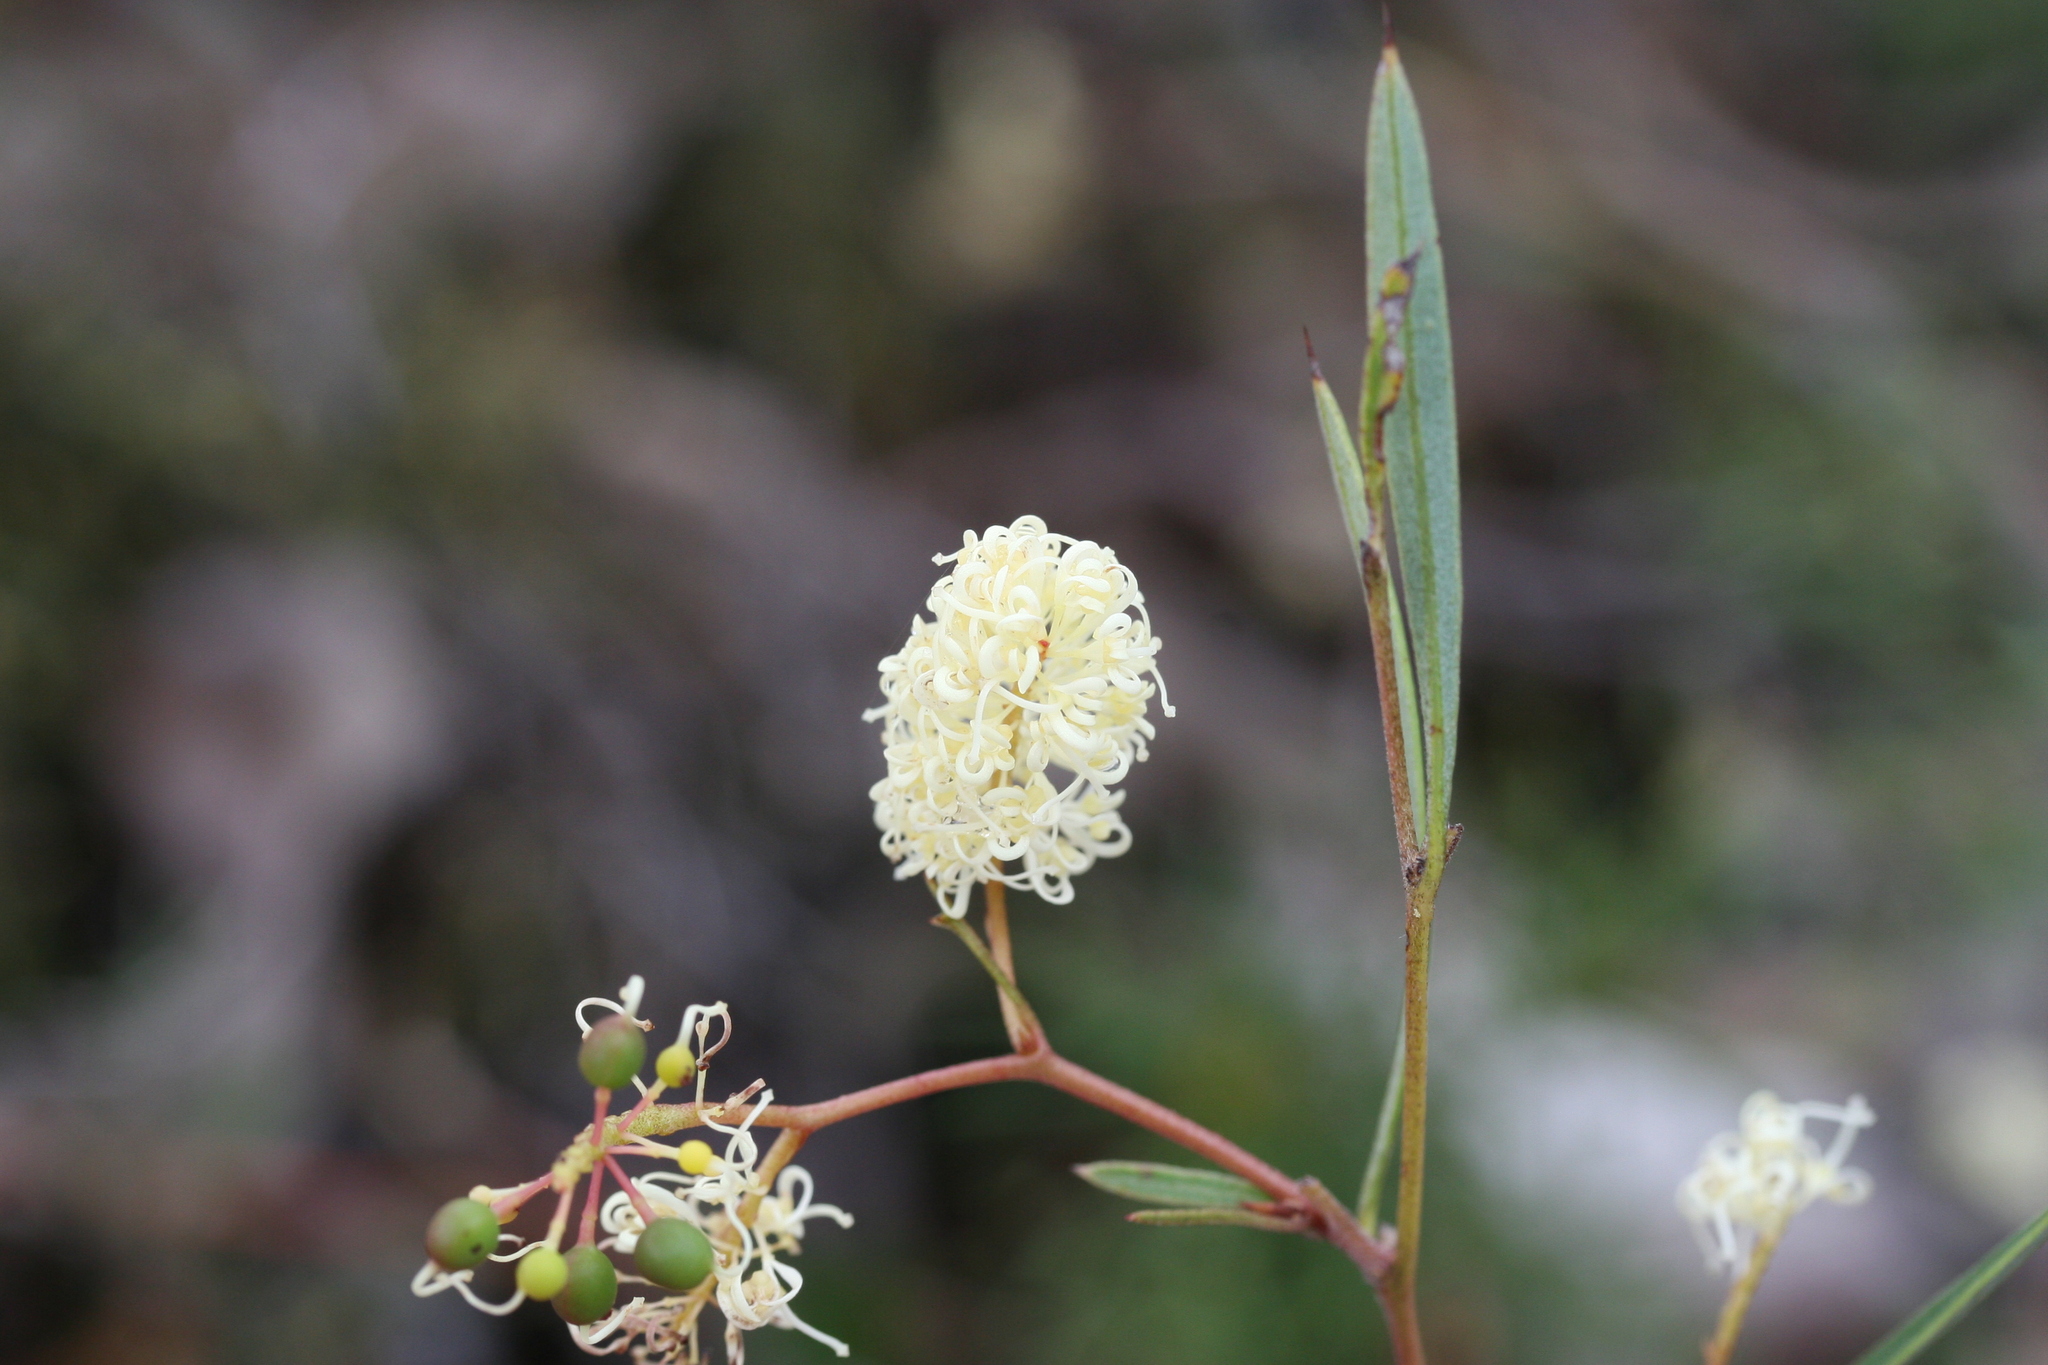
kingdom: Plantae
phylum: Tracheophyta
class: Magnoliopsida
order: Proteales
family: Proteaceae
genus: Grevillea
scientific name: Grevillea synaphea
